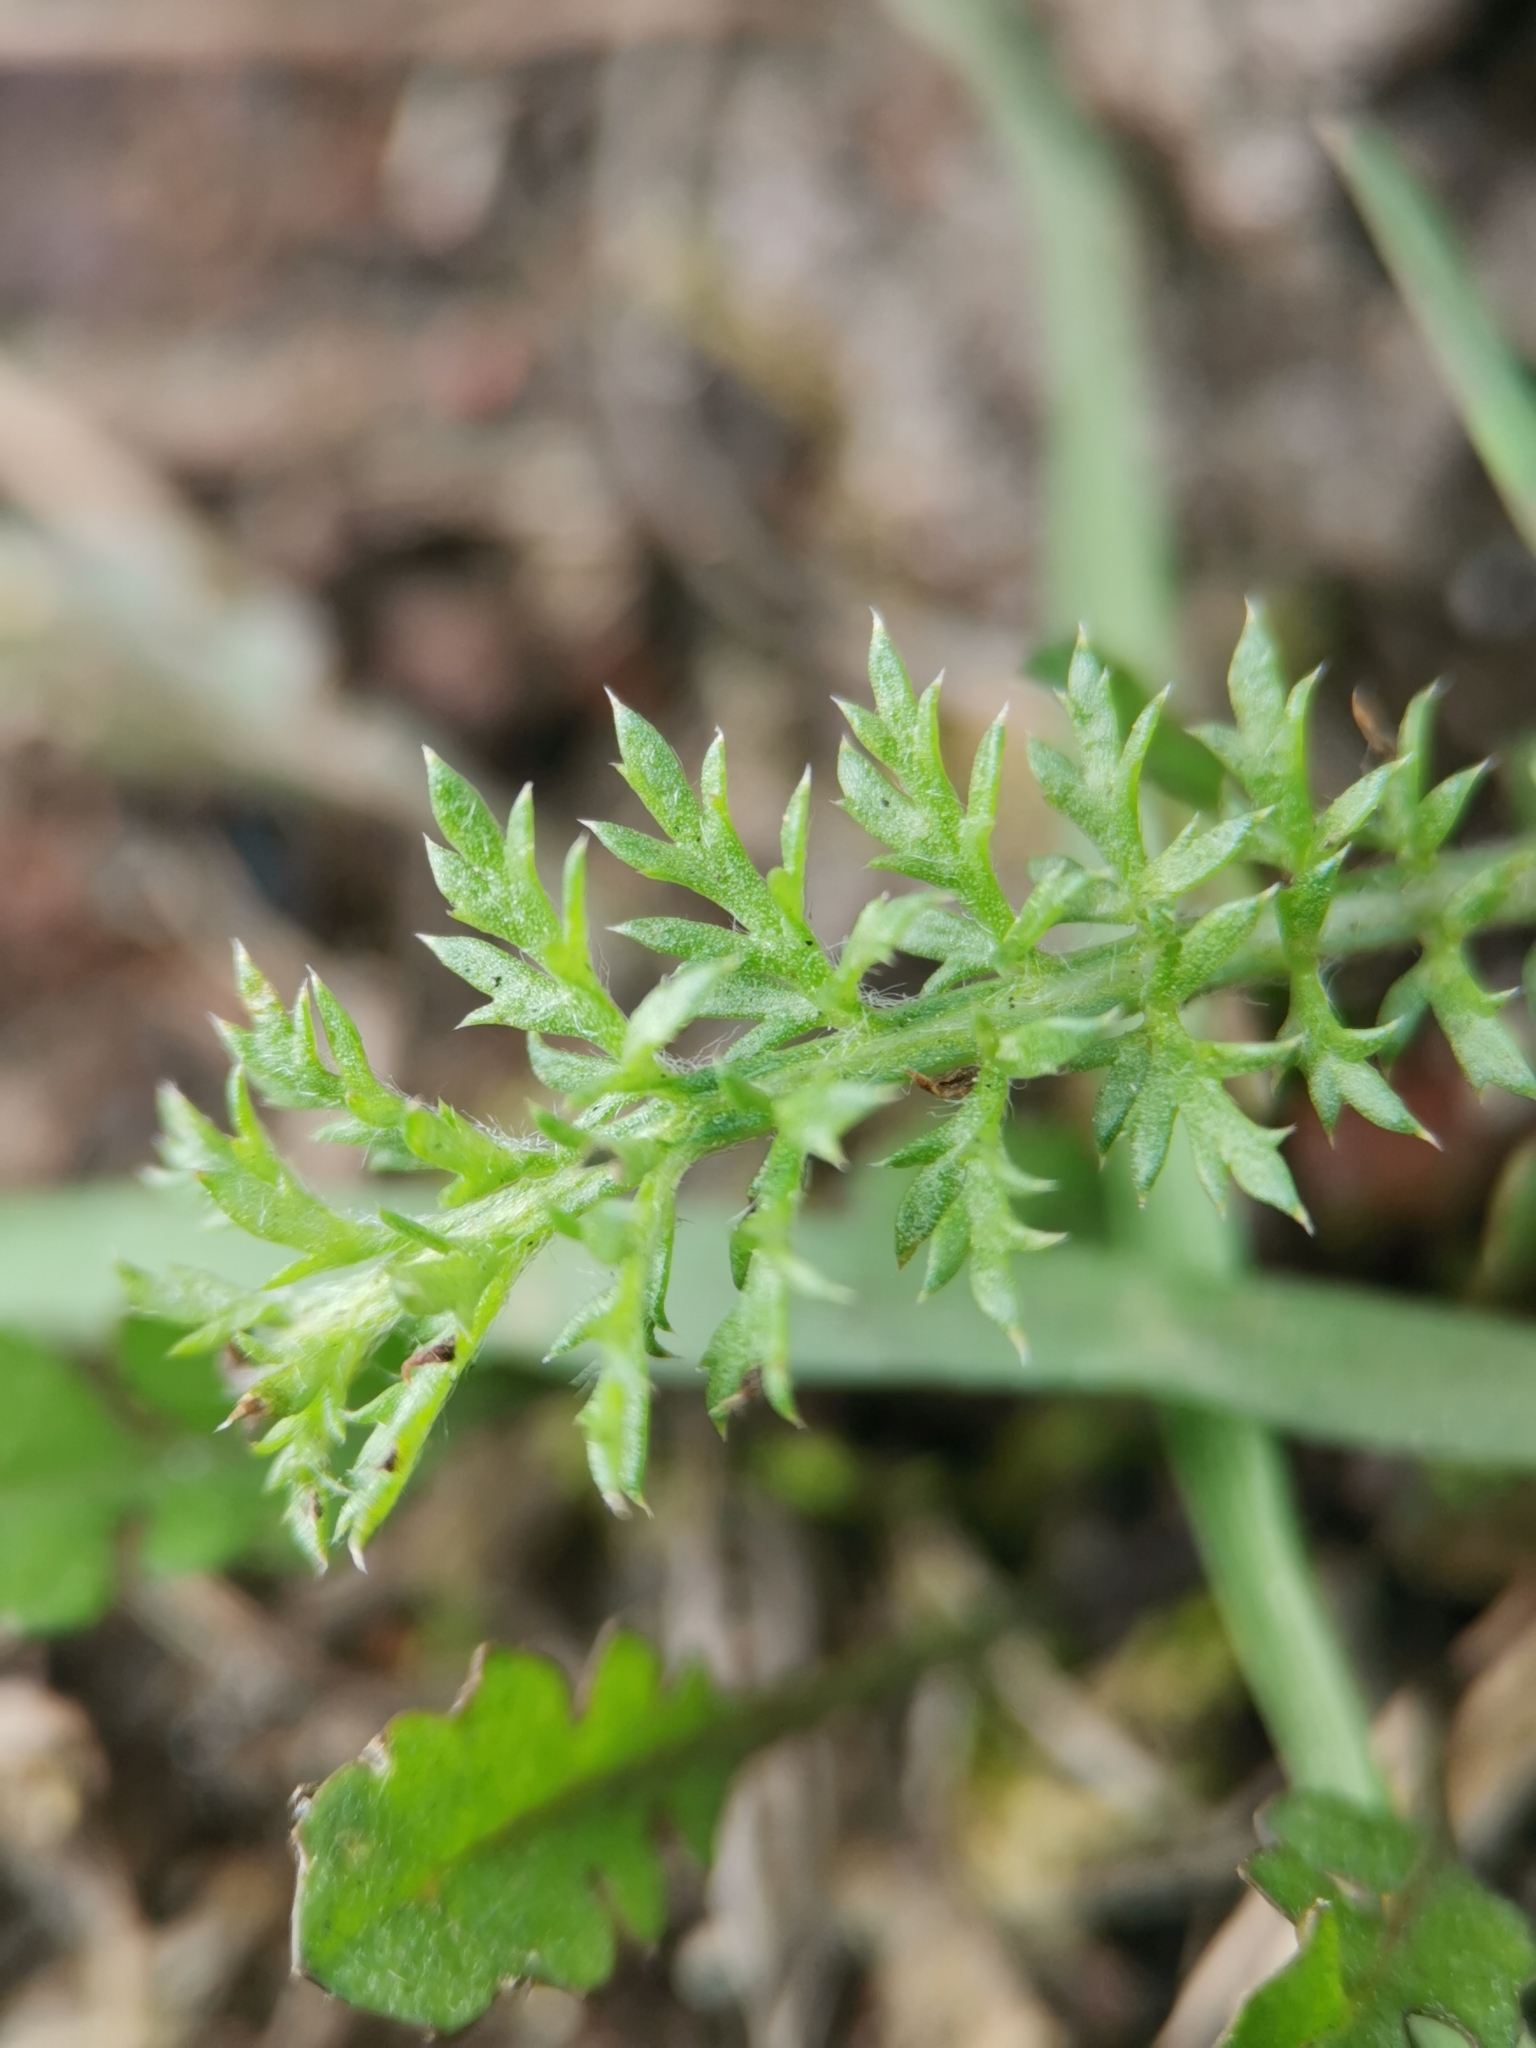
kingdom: Plantae
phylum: Tracheophyta
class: Magnoliopsida
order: Asterales
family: Asteraceae
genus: Achillea
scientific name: Achillea millefolium
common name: Yarrow
